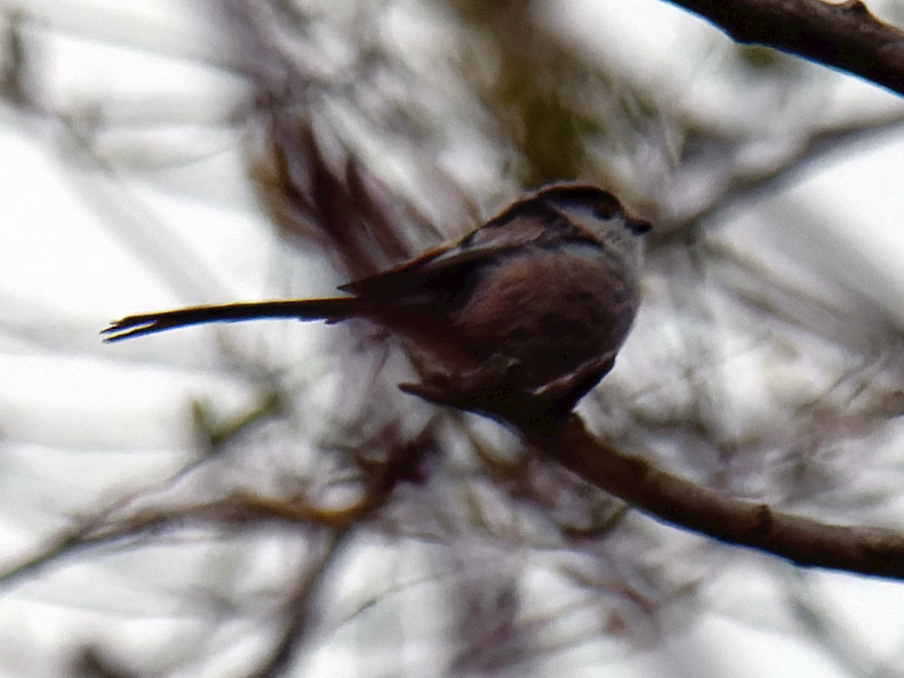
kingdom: Animalia
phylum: Chordata
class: Aves
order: Passeriformes
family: Aegithalidae
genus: Aegithalos
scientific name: Aegithalos caudatus
